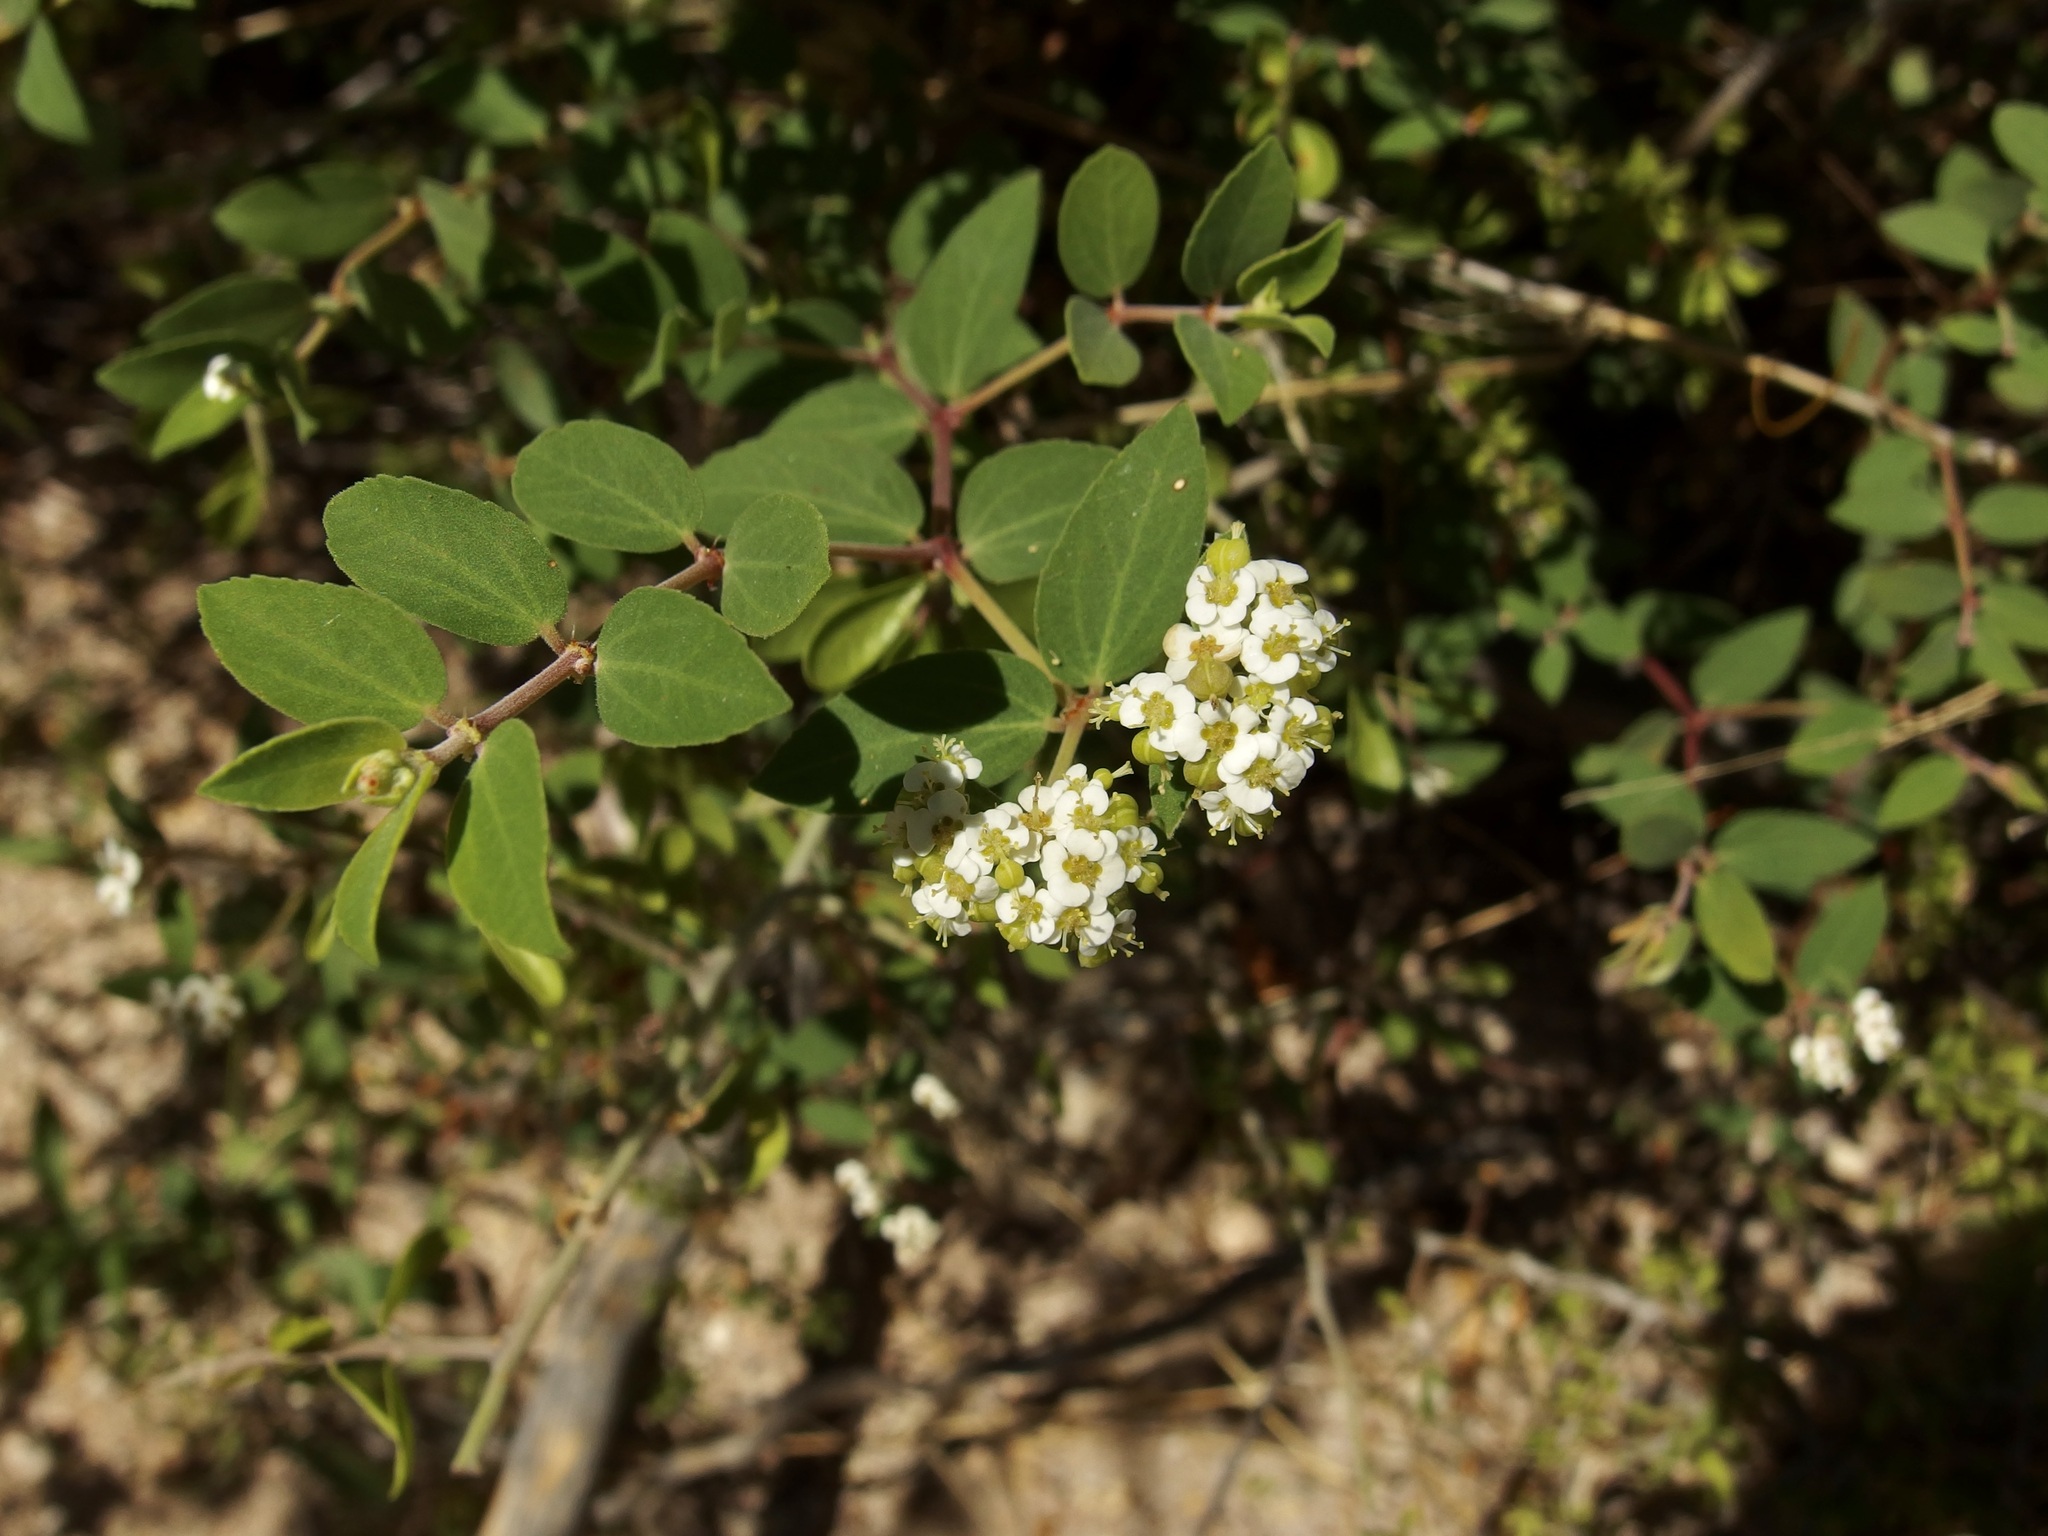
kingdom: Plantae
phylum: Tracheophyta
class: Magnoliopsida
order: Malpighiales
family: Euphorbiaceae
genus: Euphorbia
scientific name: Euphorbia tomentulosa
